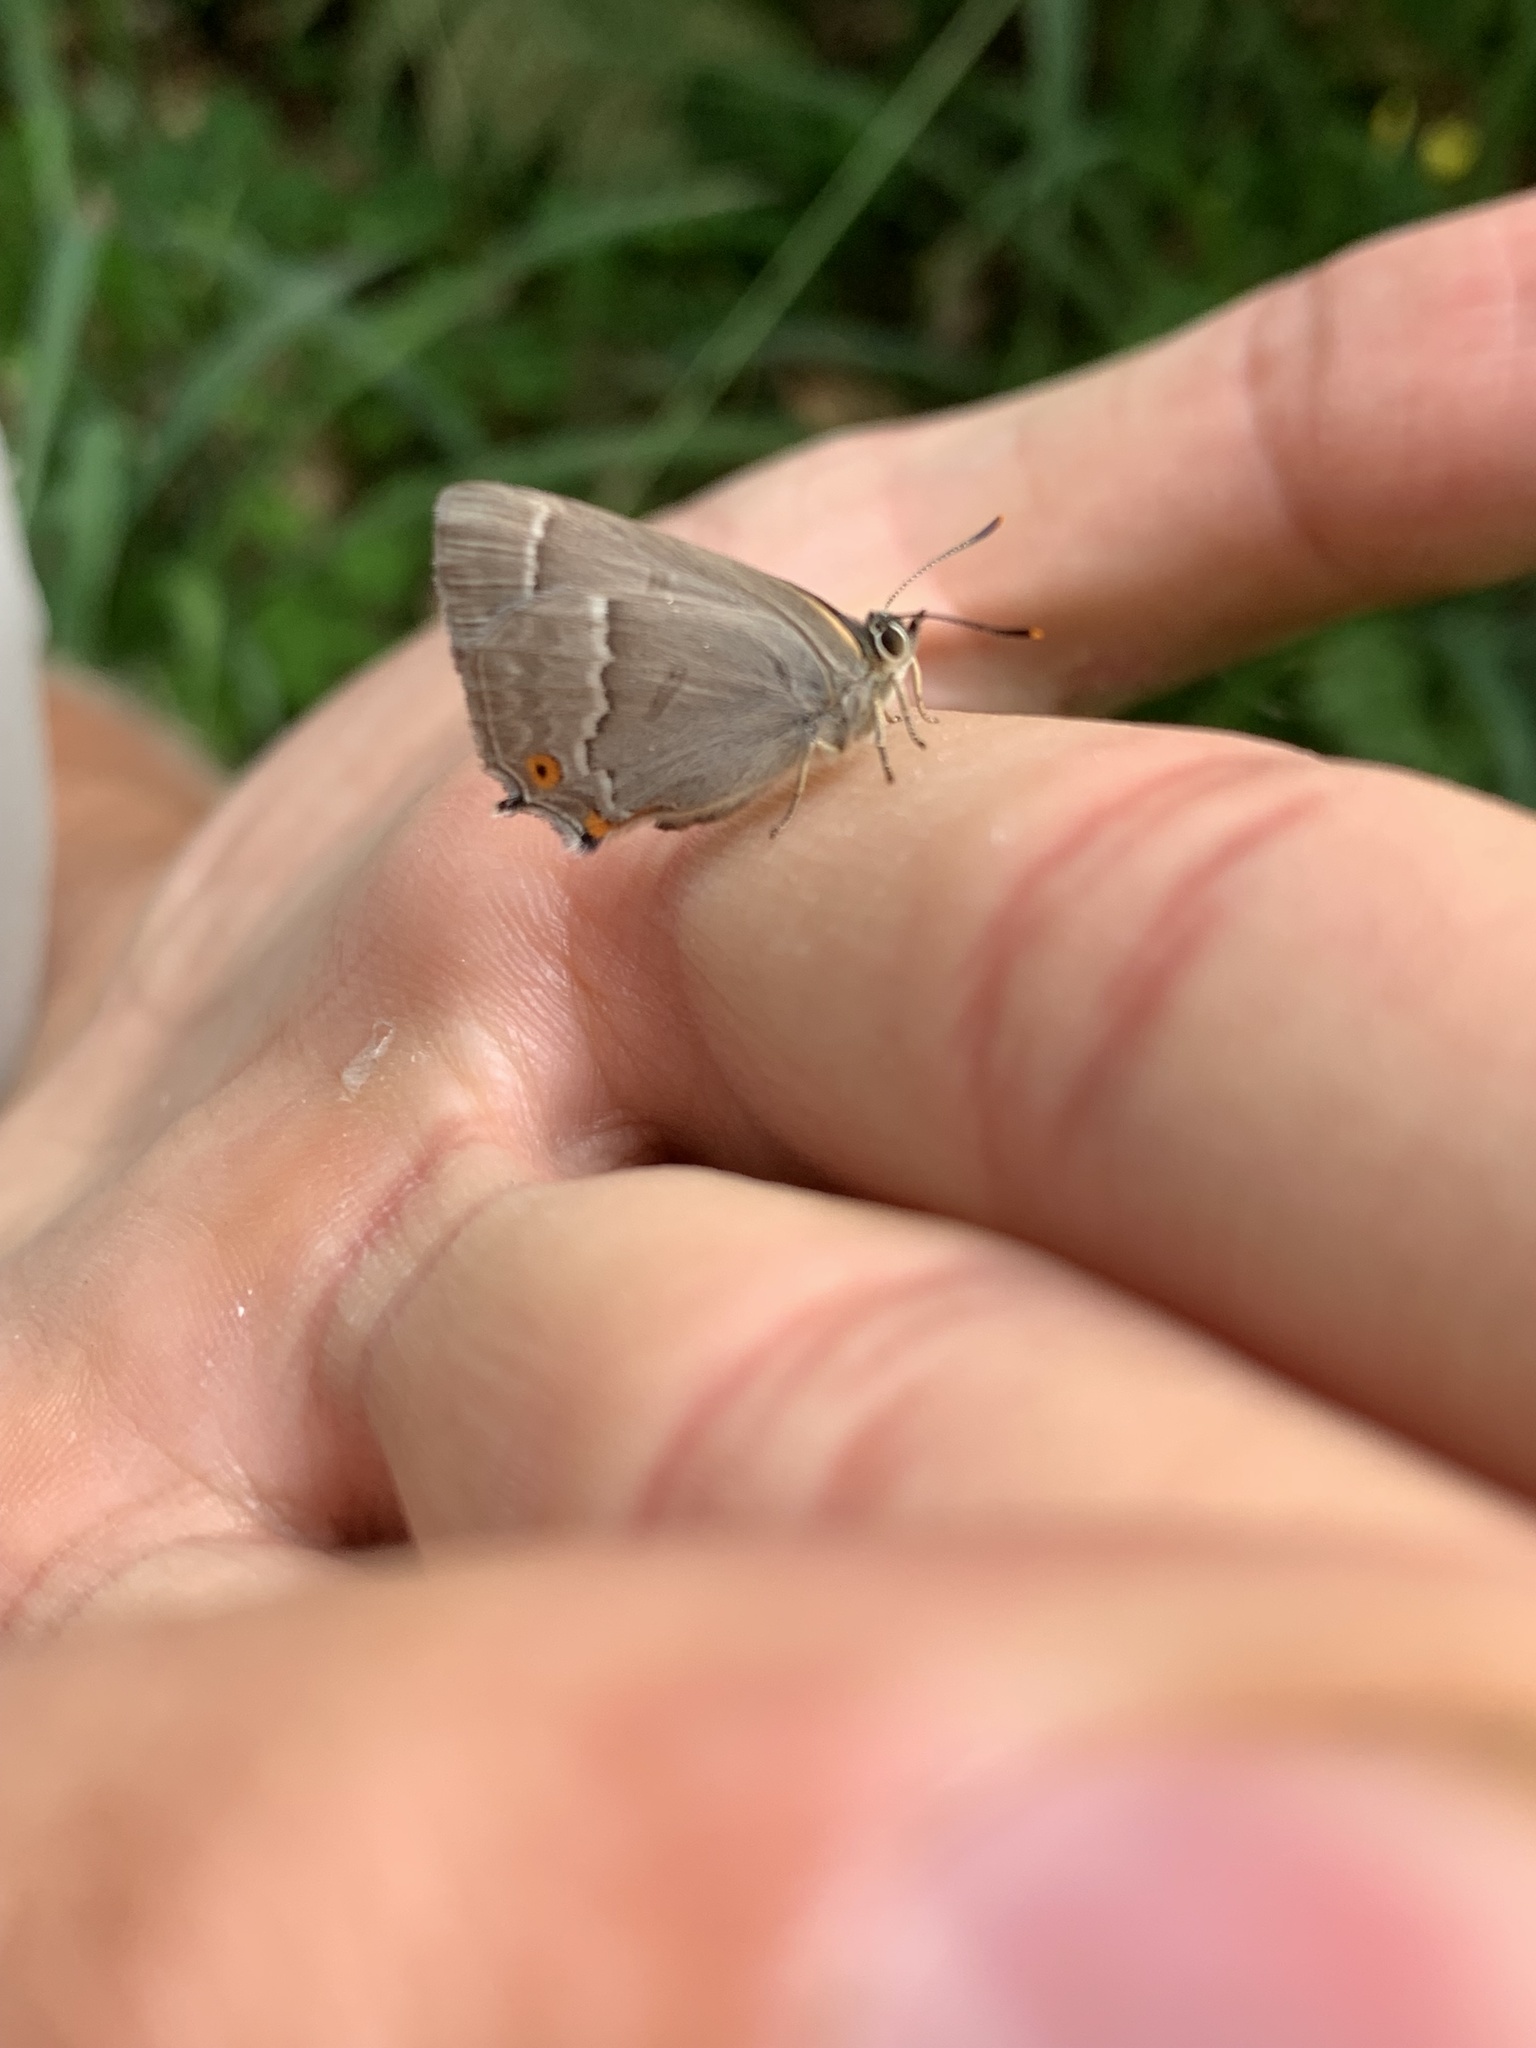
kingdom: Animalia
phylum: Arthropoda
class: Insecta
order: Lepidoptera
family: Lycaenidae
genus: Quercusia
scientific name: Quercusia quercus
